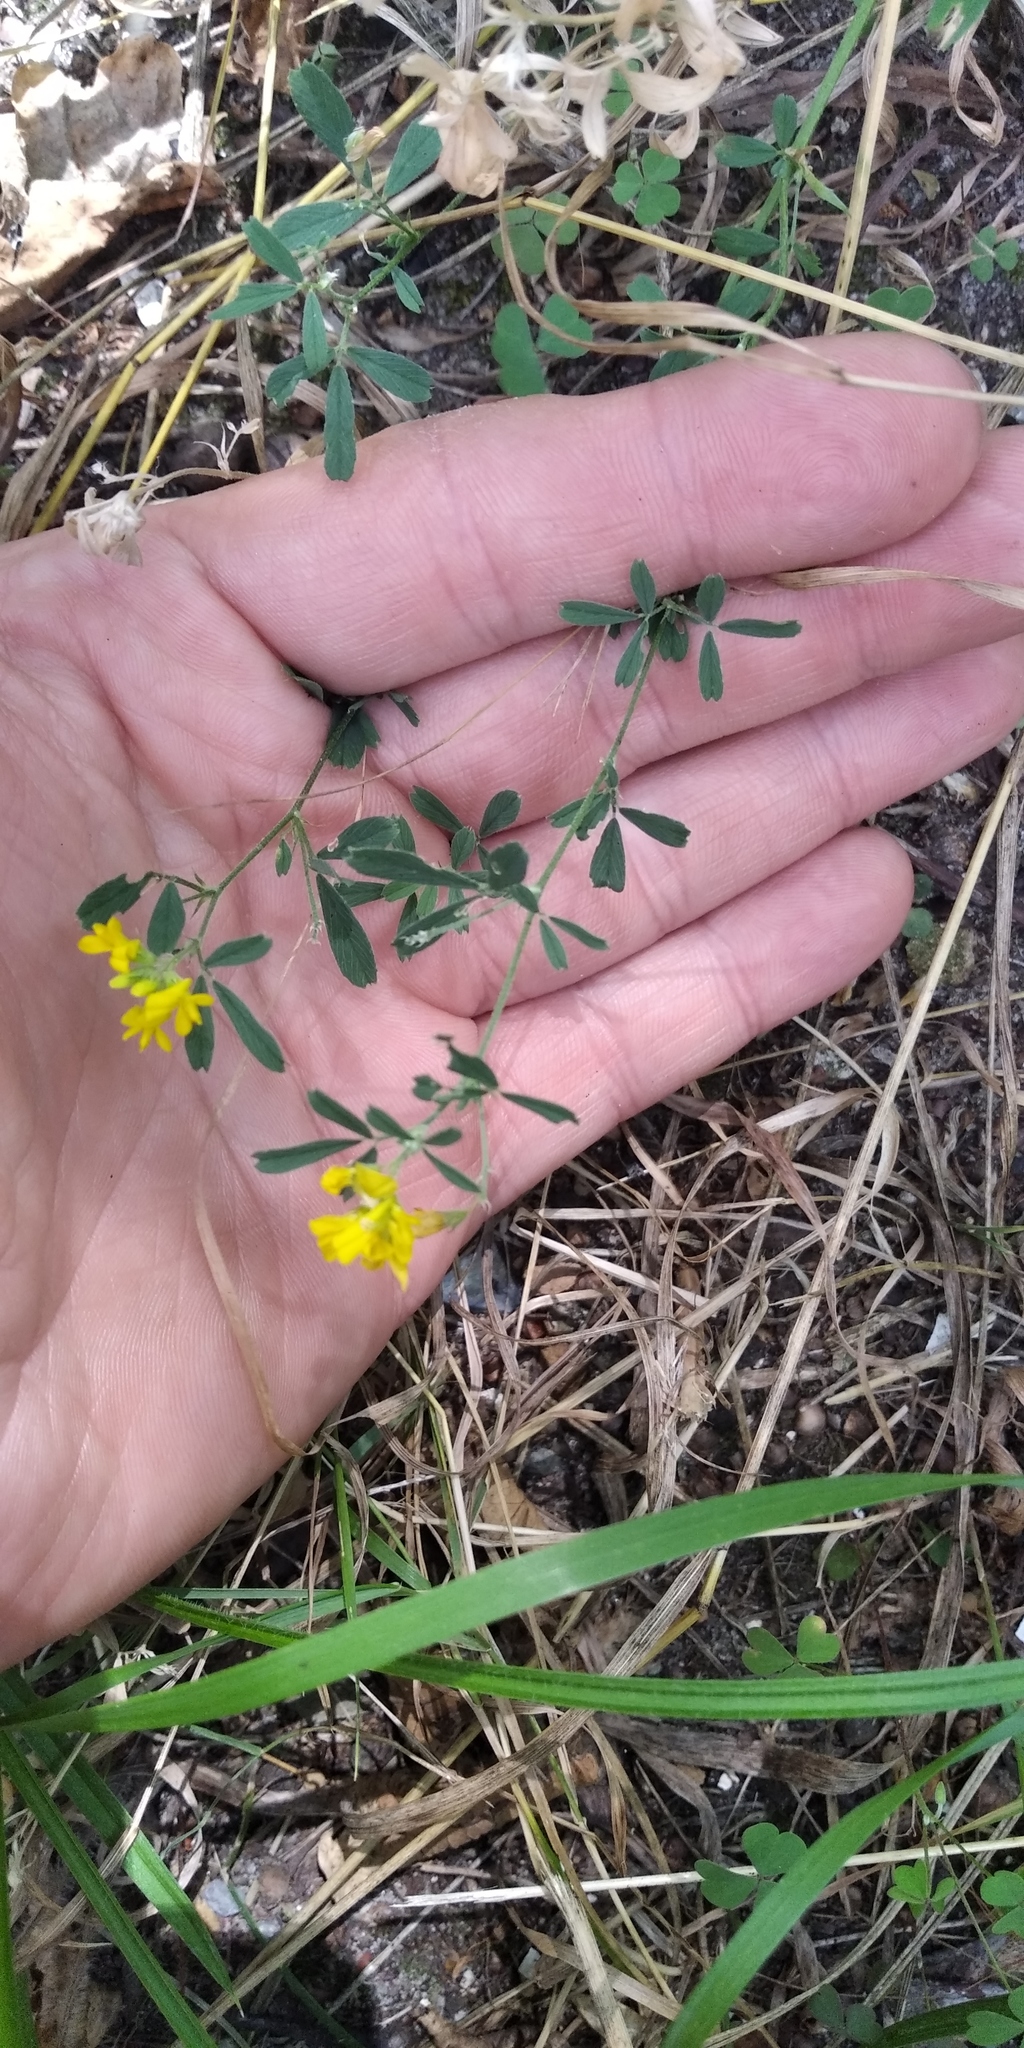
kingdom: Plantae
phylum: Tracheophyta
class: Magnoliopsida
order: Fabales
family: Fabaceae
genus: Medicago
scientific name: Medicago falcata
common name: Sickle medick
